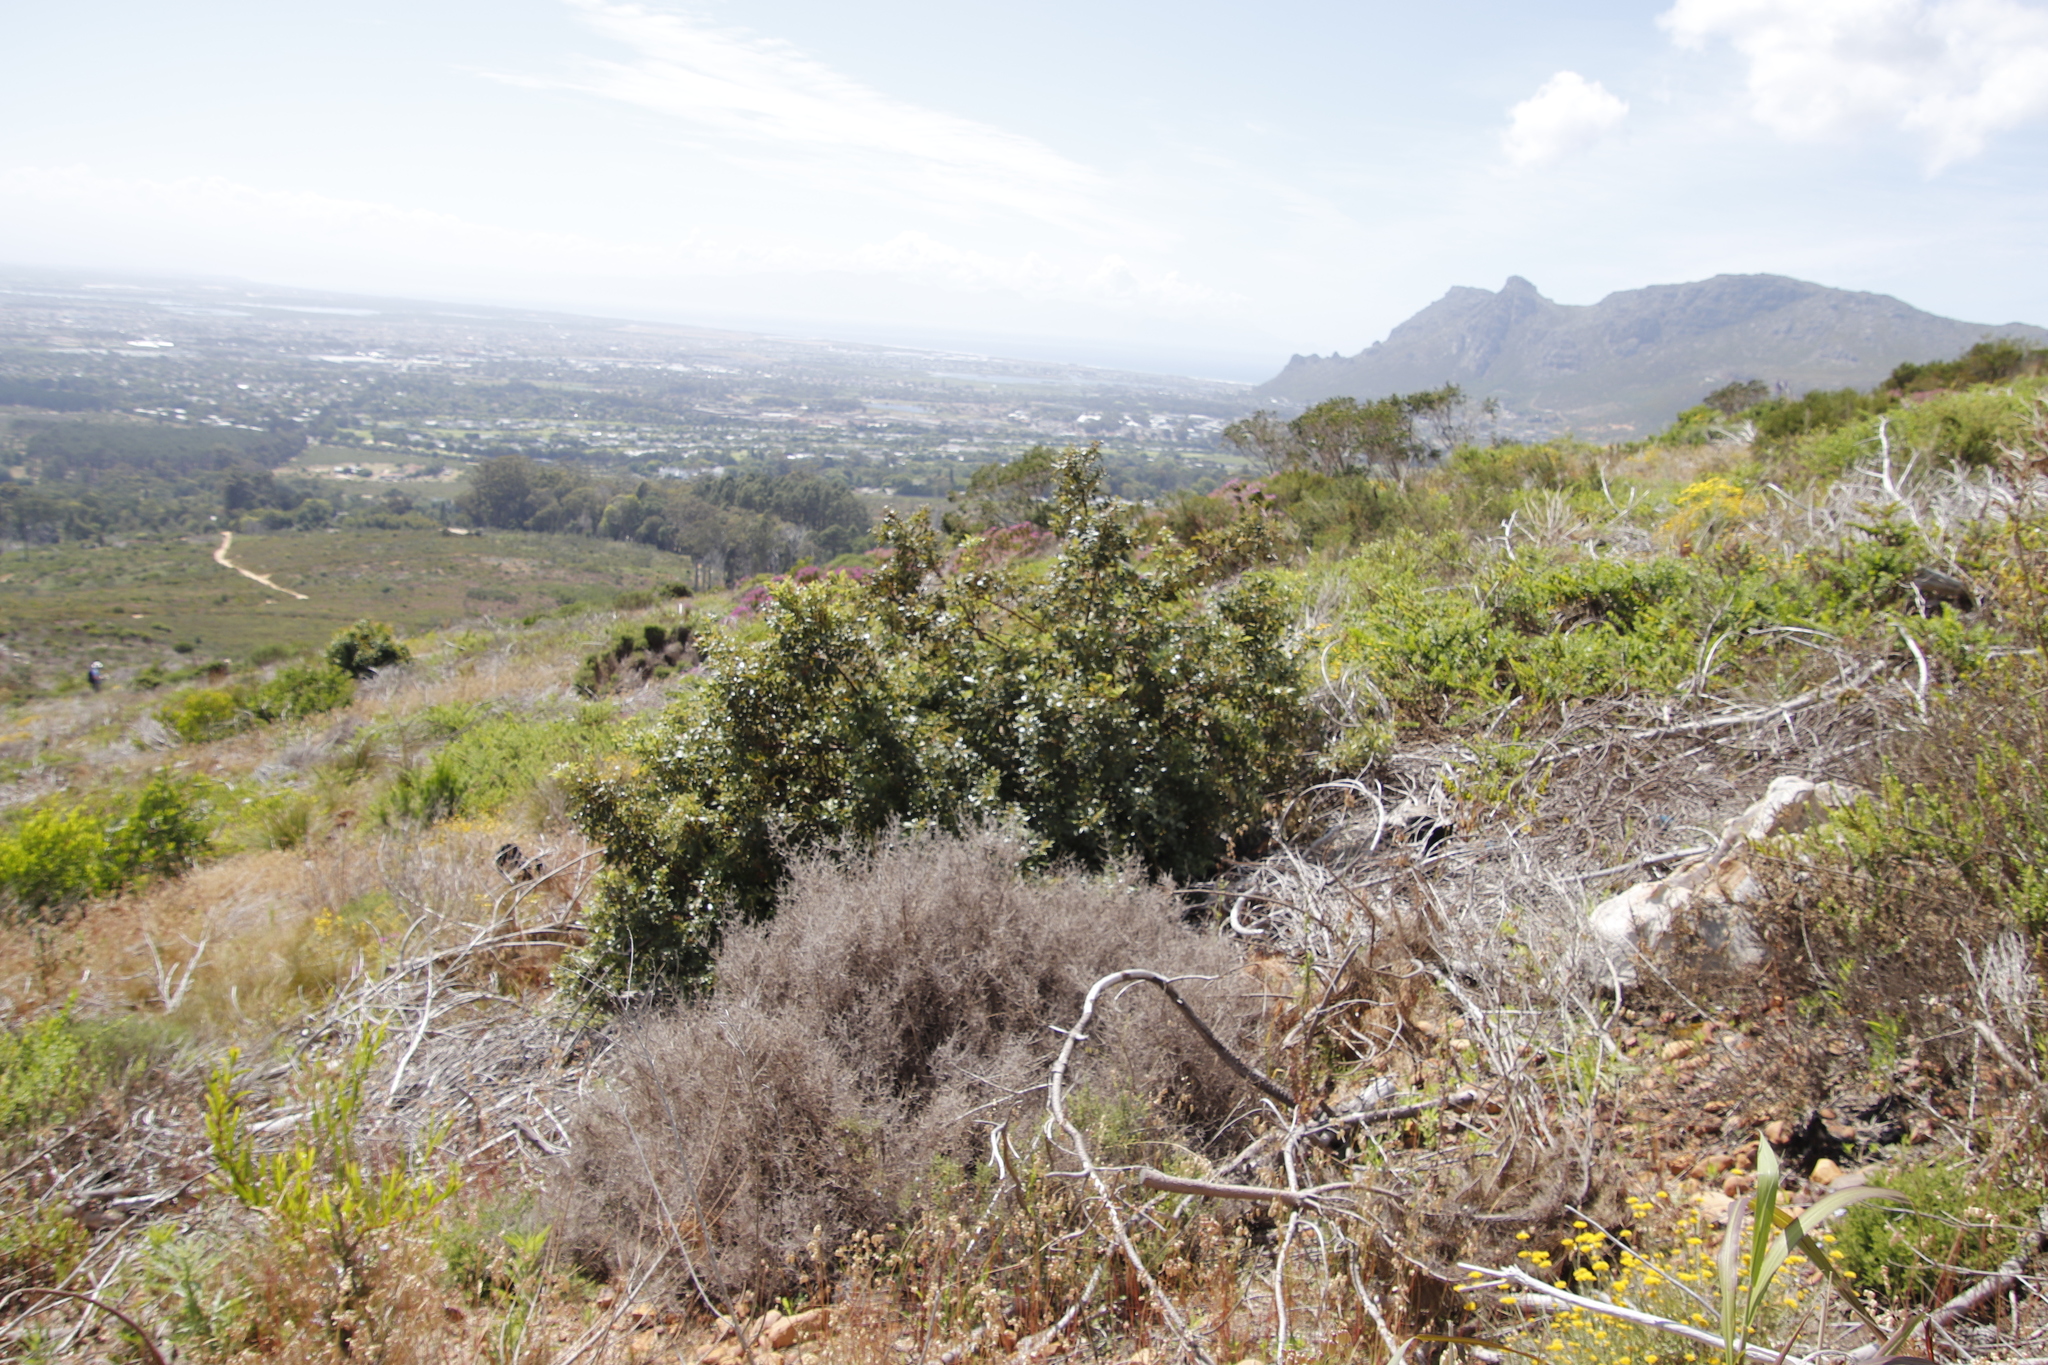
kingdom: Plantae
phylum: Tracheophyta
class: Magnoliopsida
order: Sapindales
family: Anacardiaceae
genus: Searsia
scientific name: Searsia tomentosa
